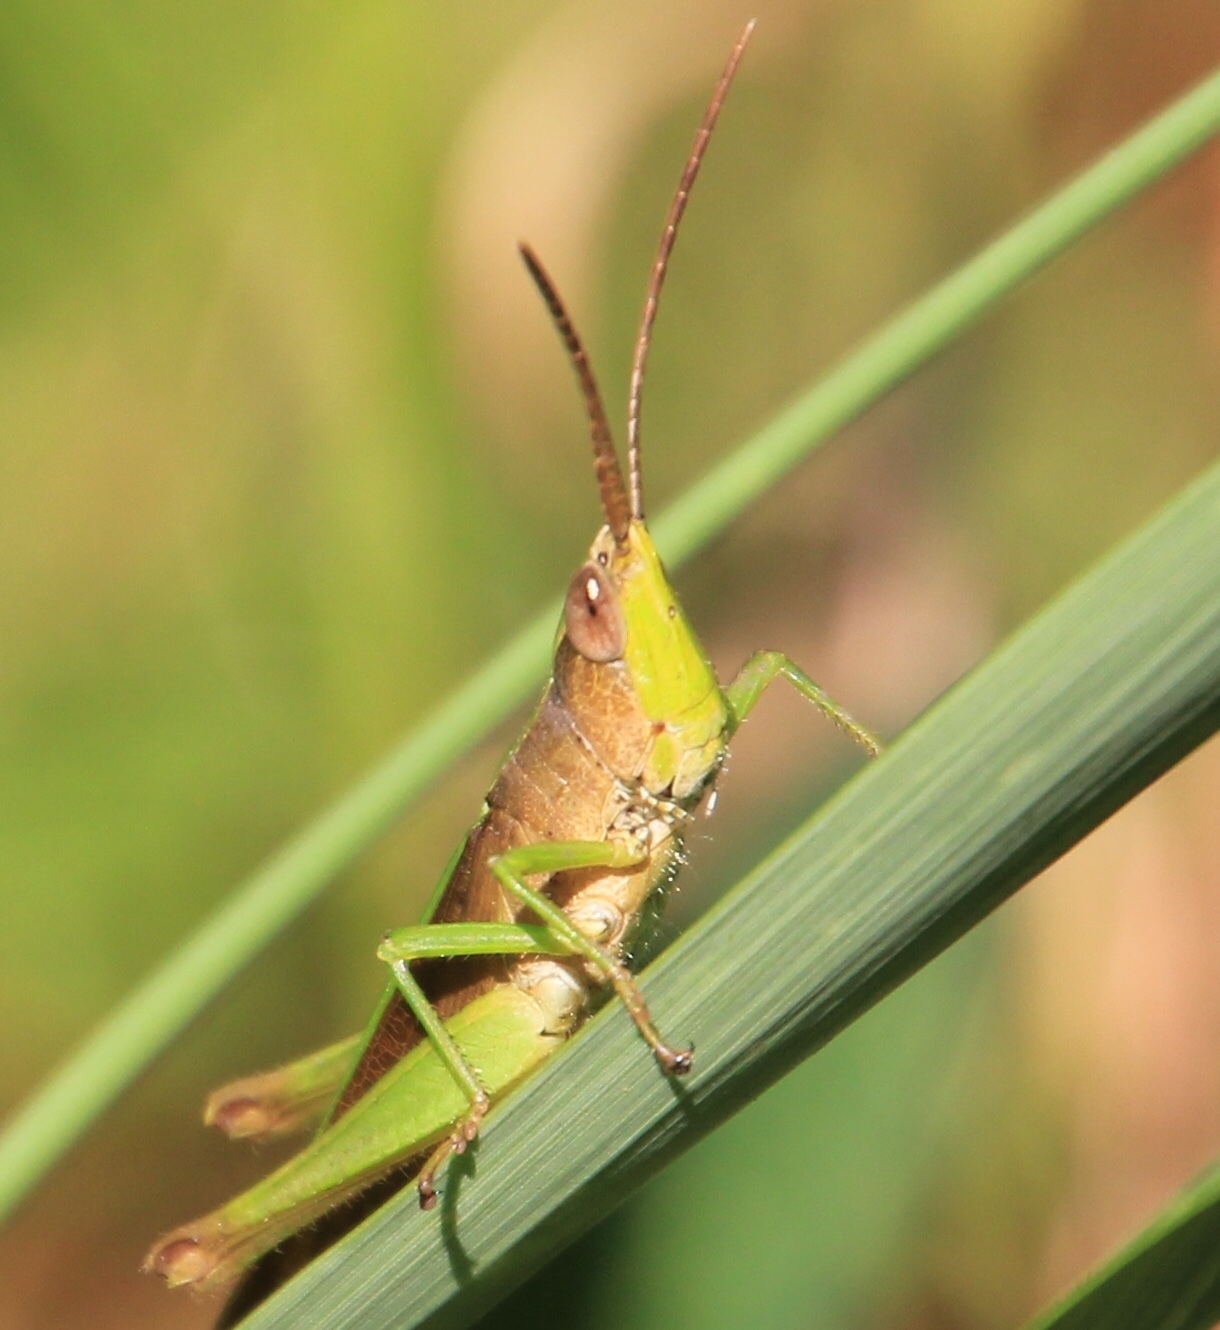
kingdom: Animalia
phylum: Arthropoda
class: Insecta
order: Orthoptera
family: Acrididae
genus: Metaleptea
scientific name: Metaleptea brevicornis
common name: Clipped-wing grasshopper
